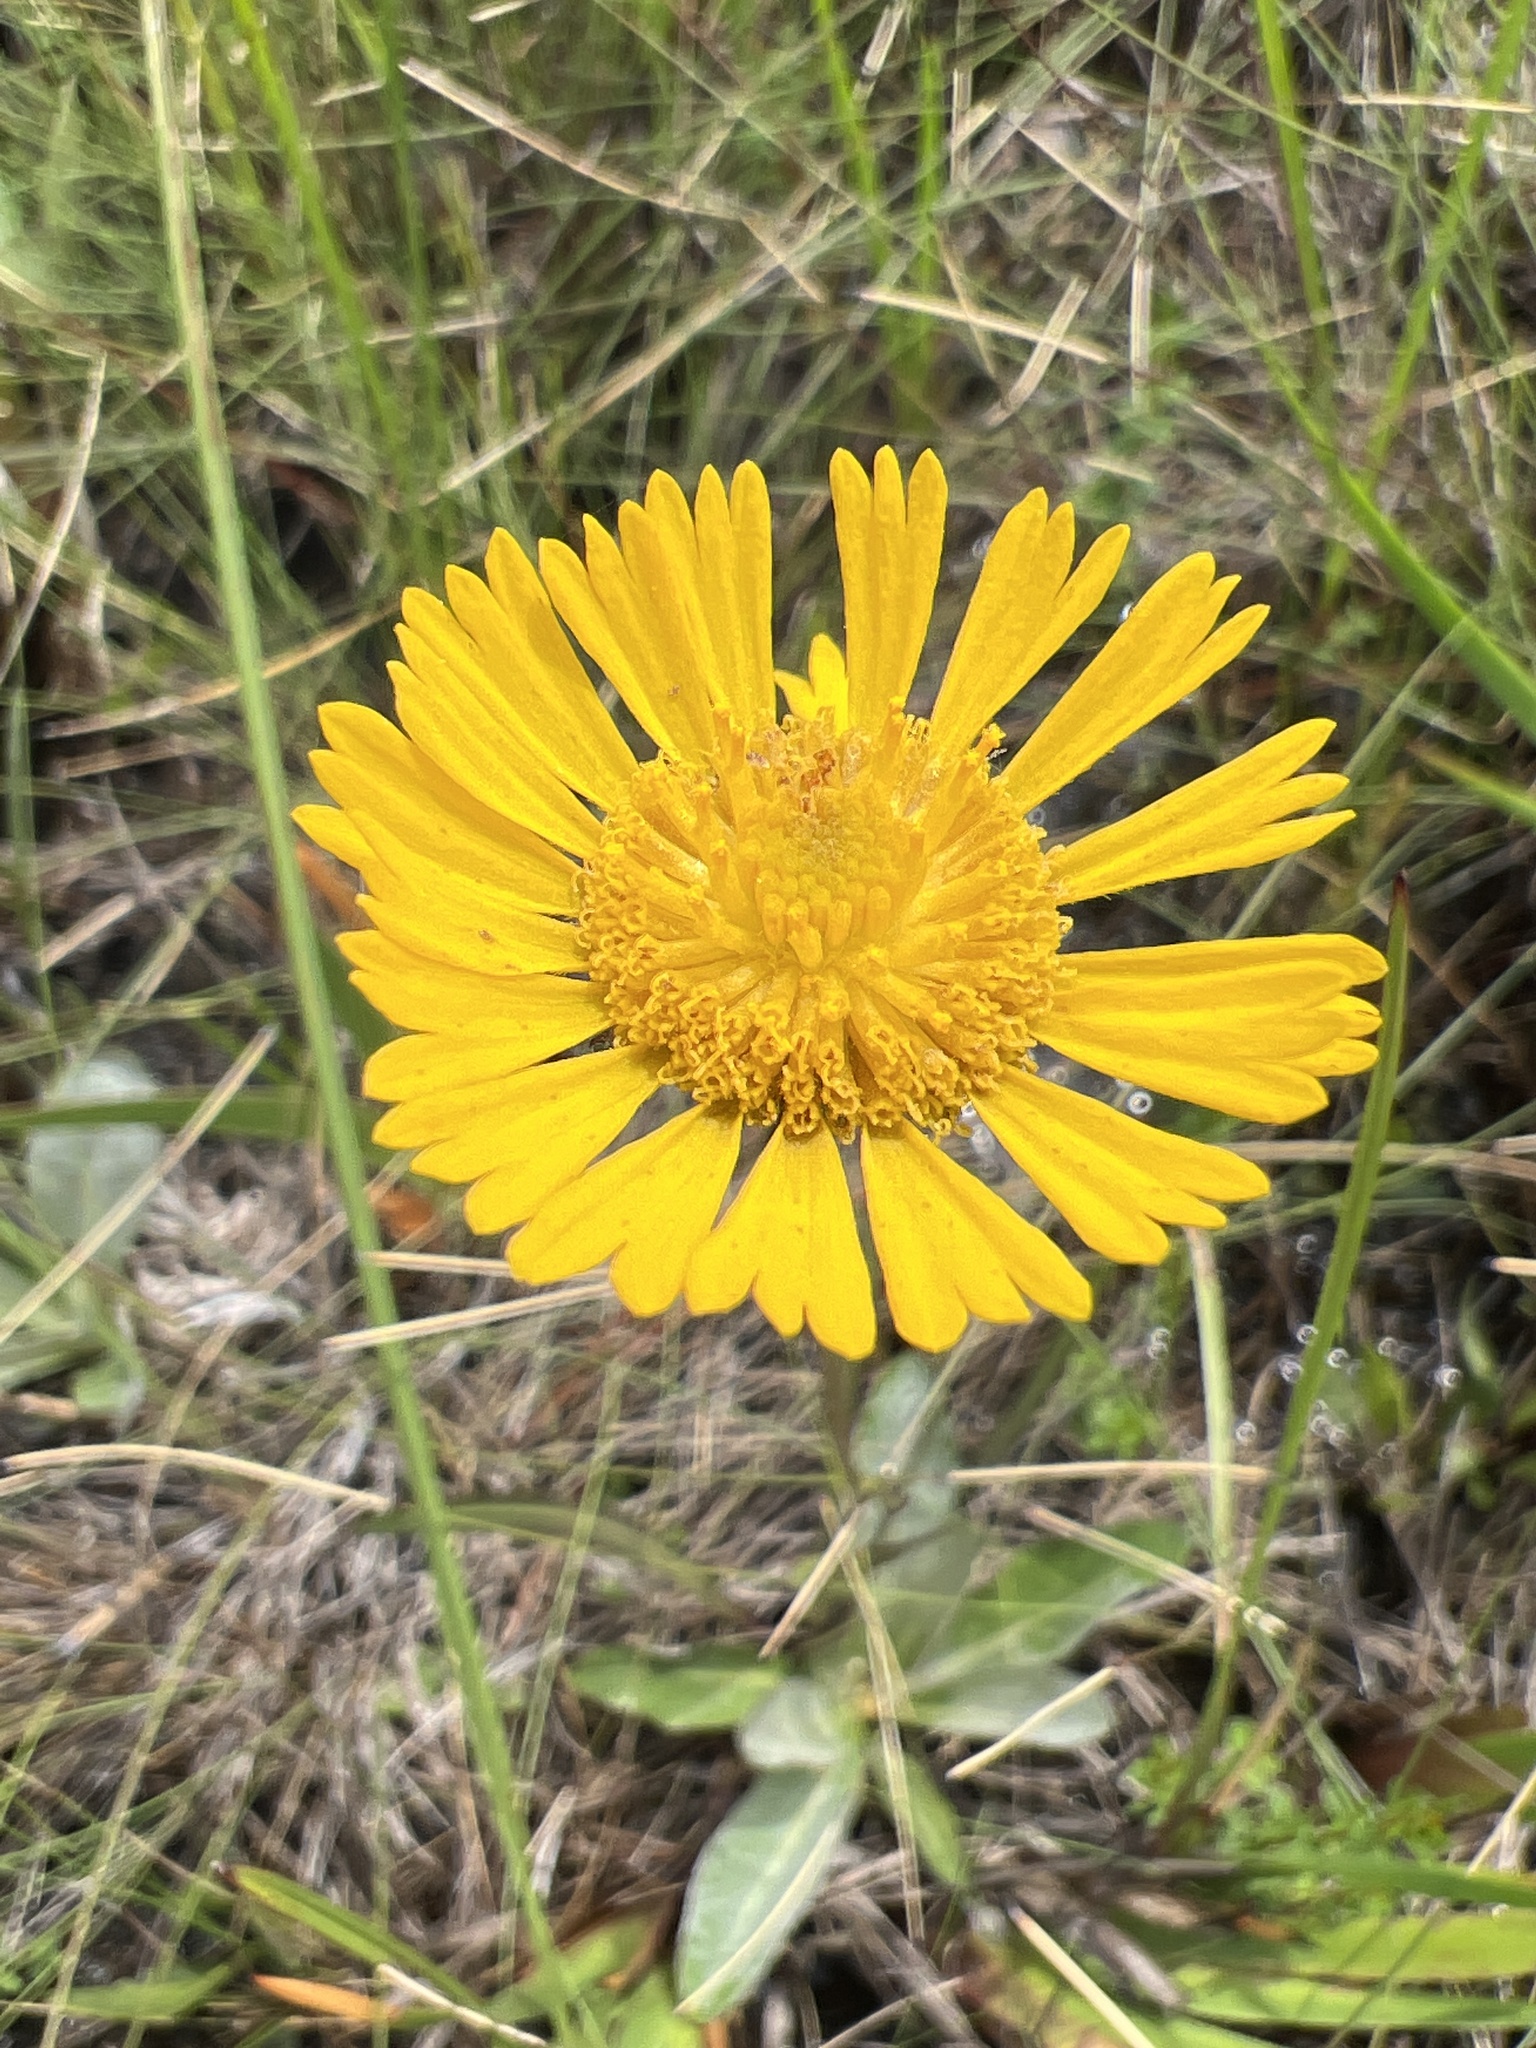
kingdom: Plantae
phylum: Tracheophyta
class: Magnoliopsida
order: Asterales
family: Asteraceae
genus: Helenium
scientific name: Helenium vernale
